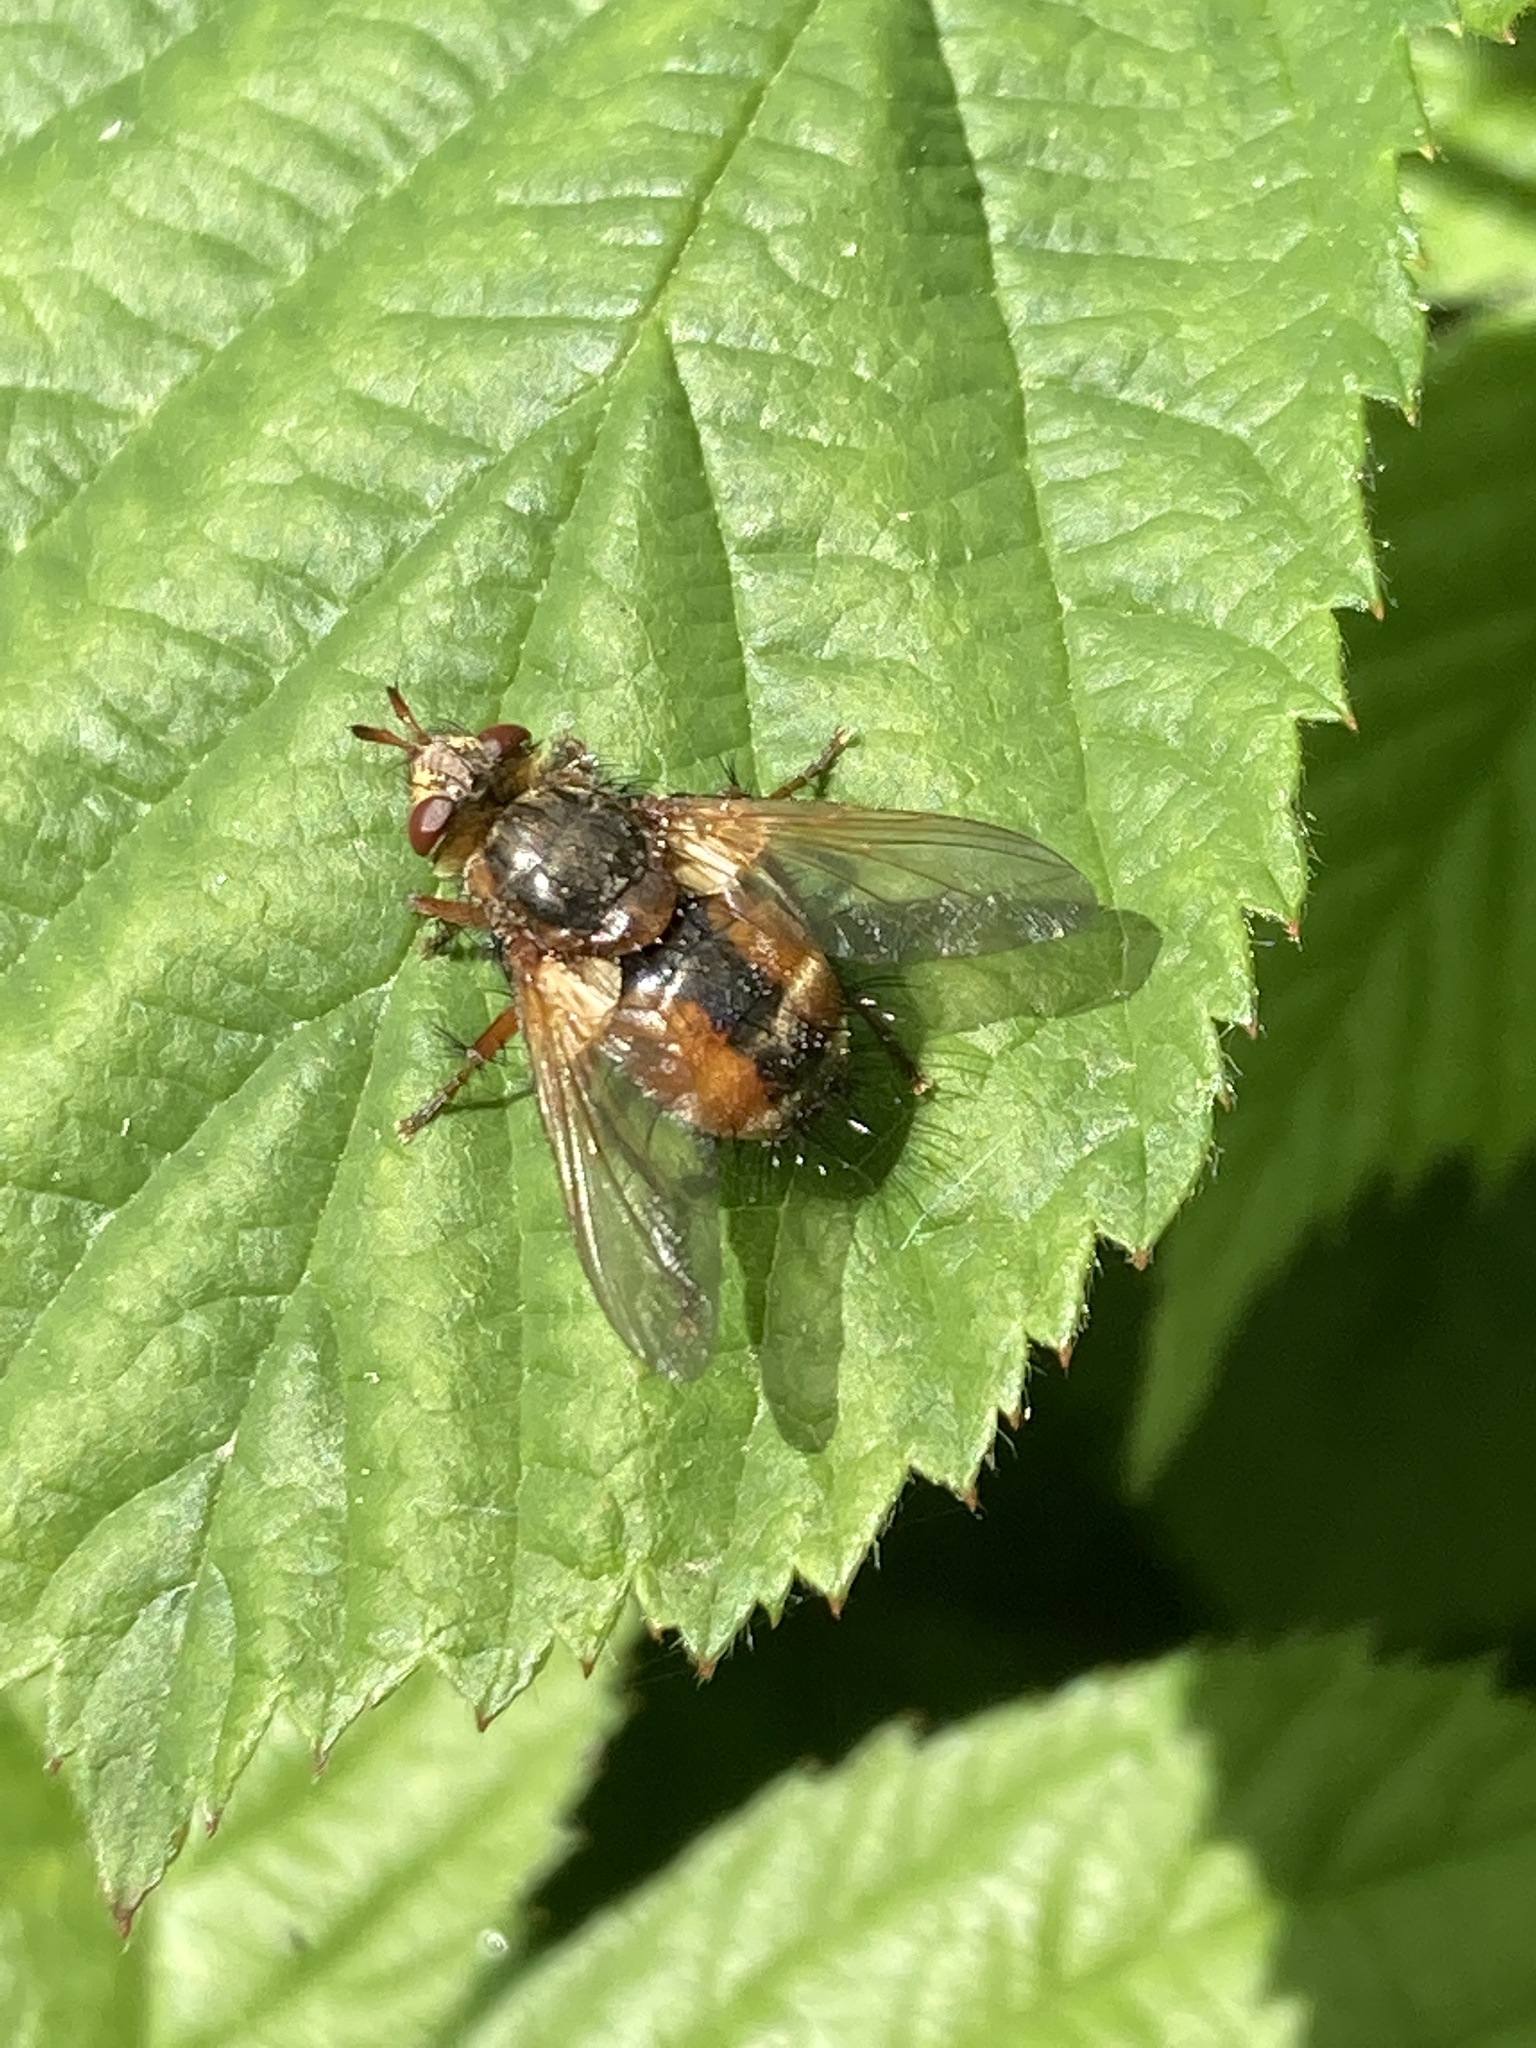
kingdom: Animalia
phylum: Arthropoda
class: Insecta
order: Diptera
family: Tachinidae
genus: Tachina
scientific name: Tachina fera
